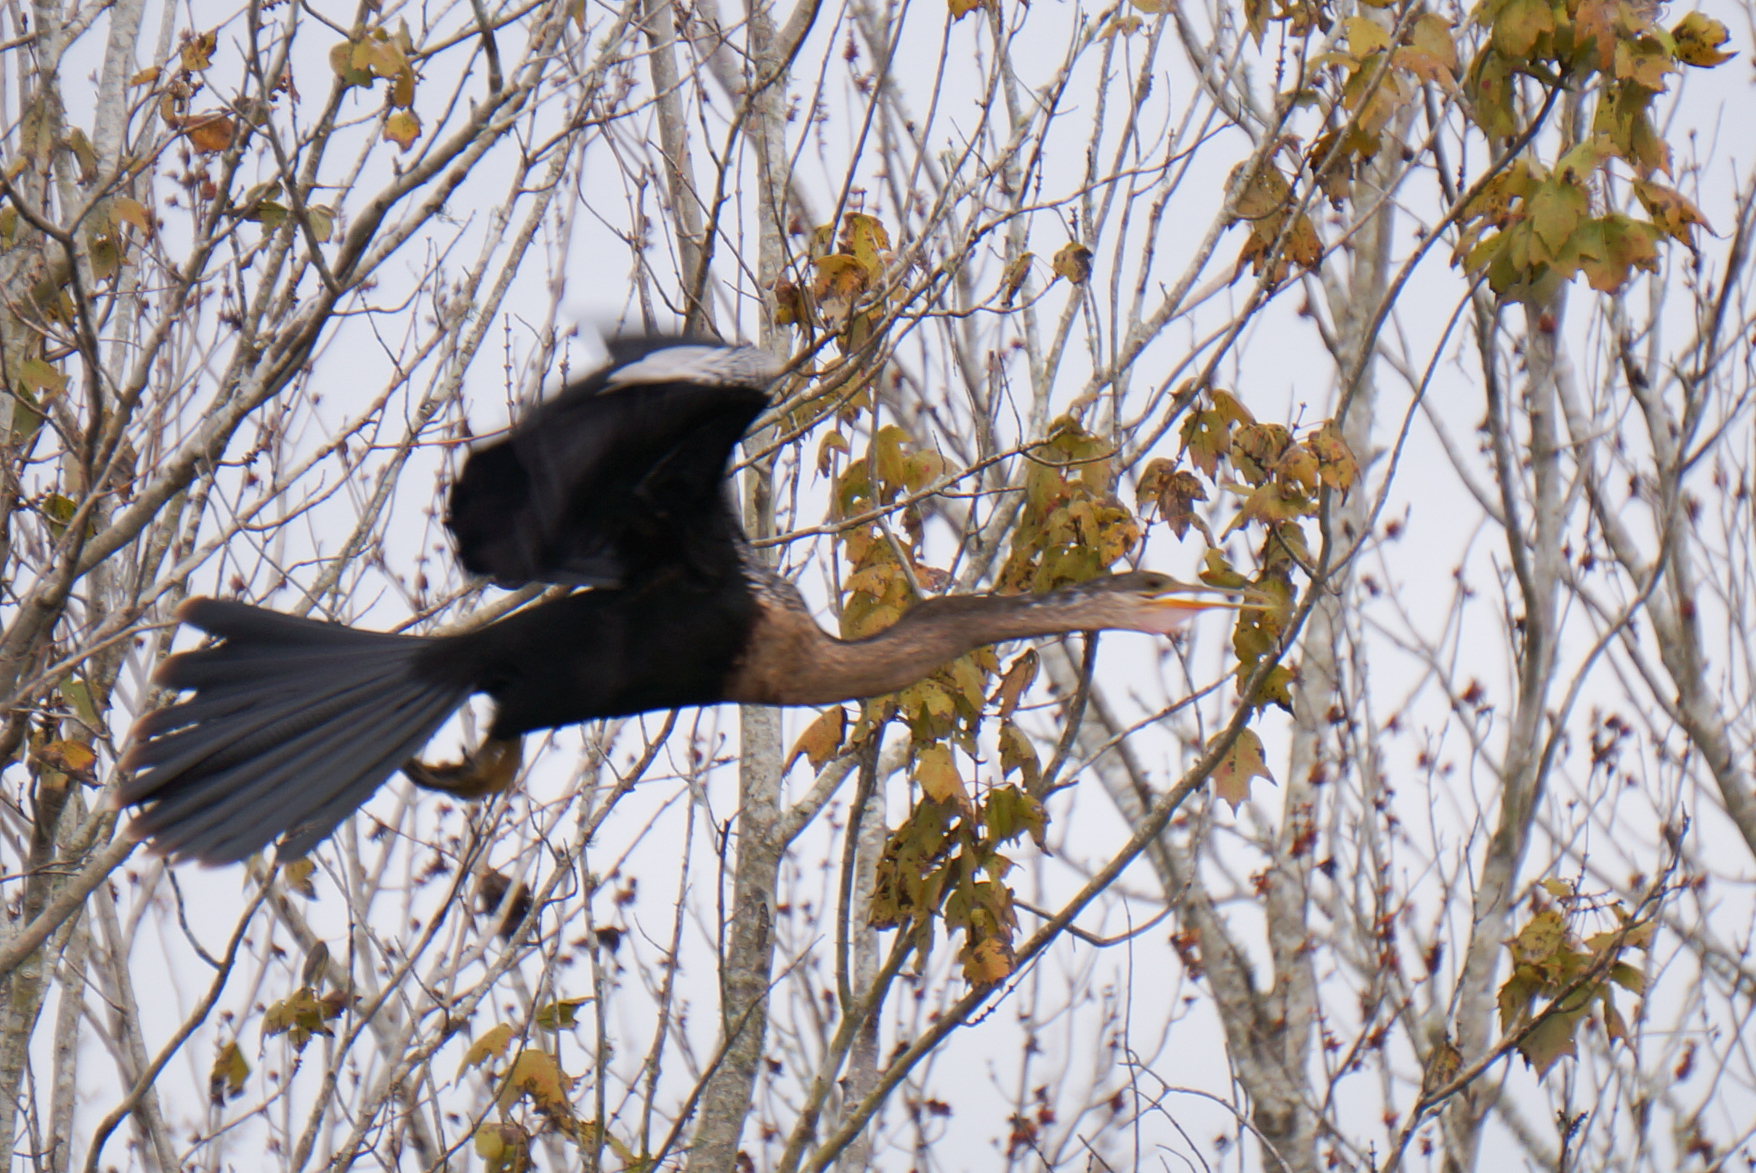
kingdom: Animalia
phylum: Chordata
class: Aves
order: Suliformes
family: Anhingidae
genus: Anhinga
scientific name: Anhinga anhinga
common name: Anhinga
